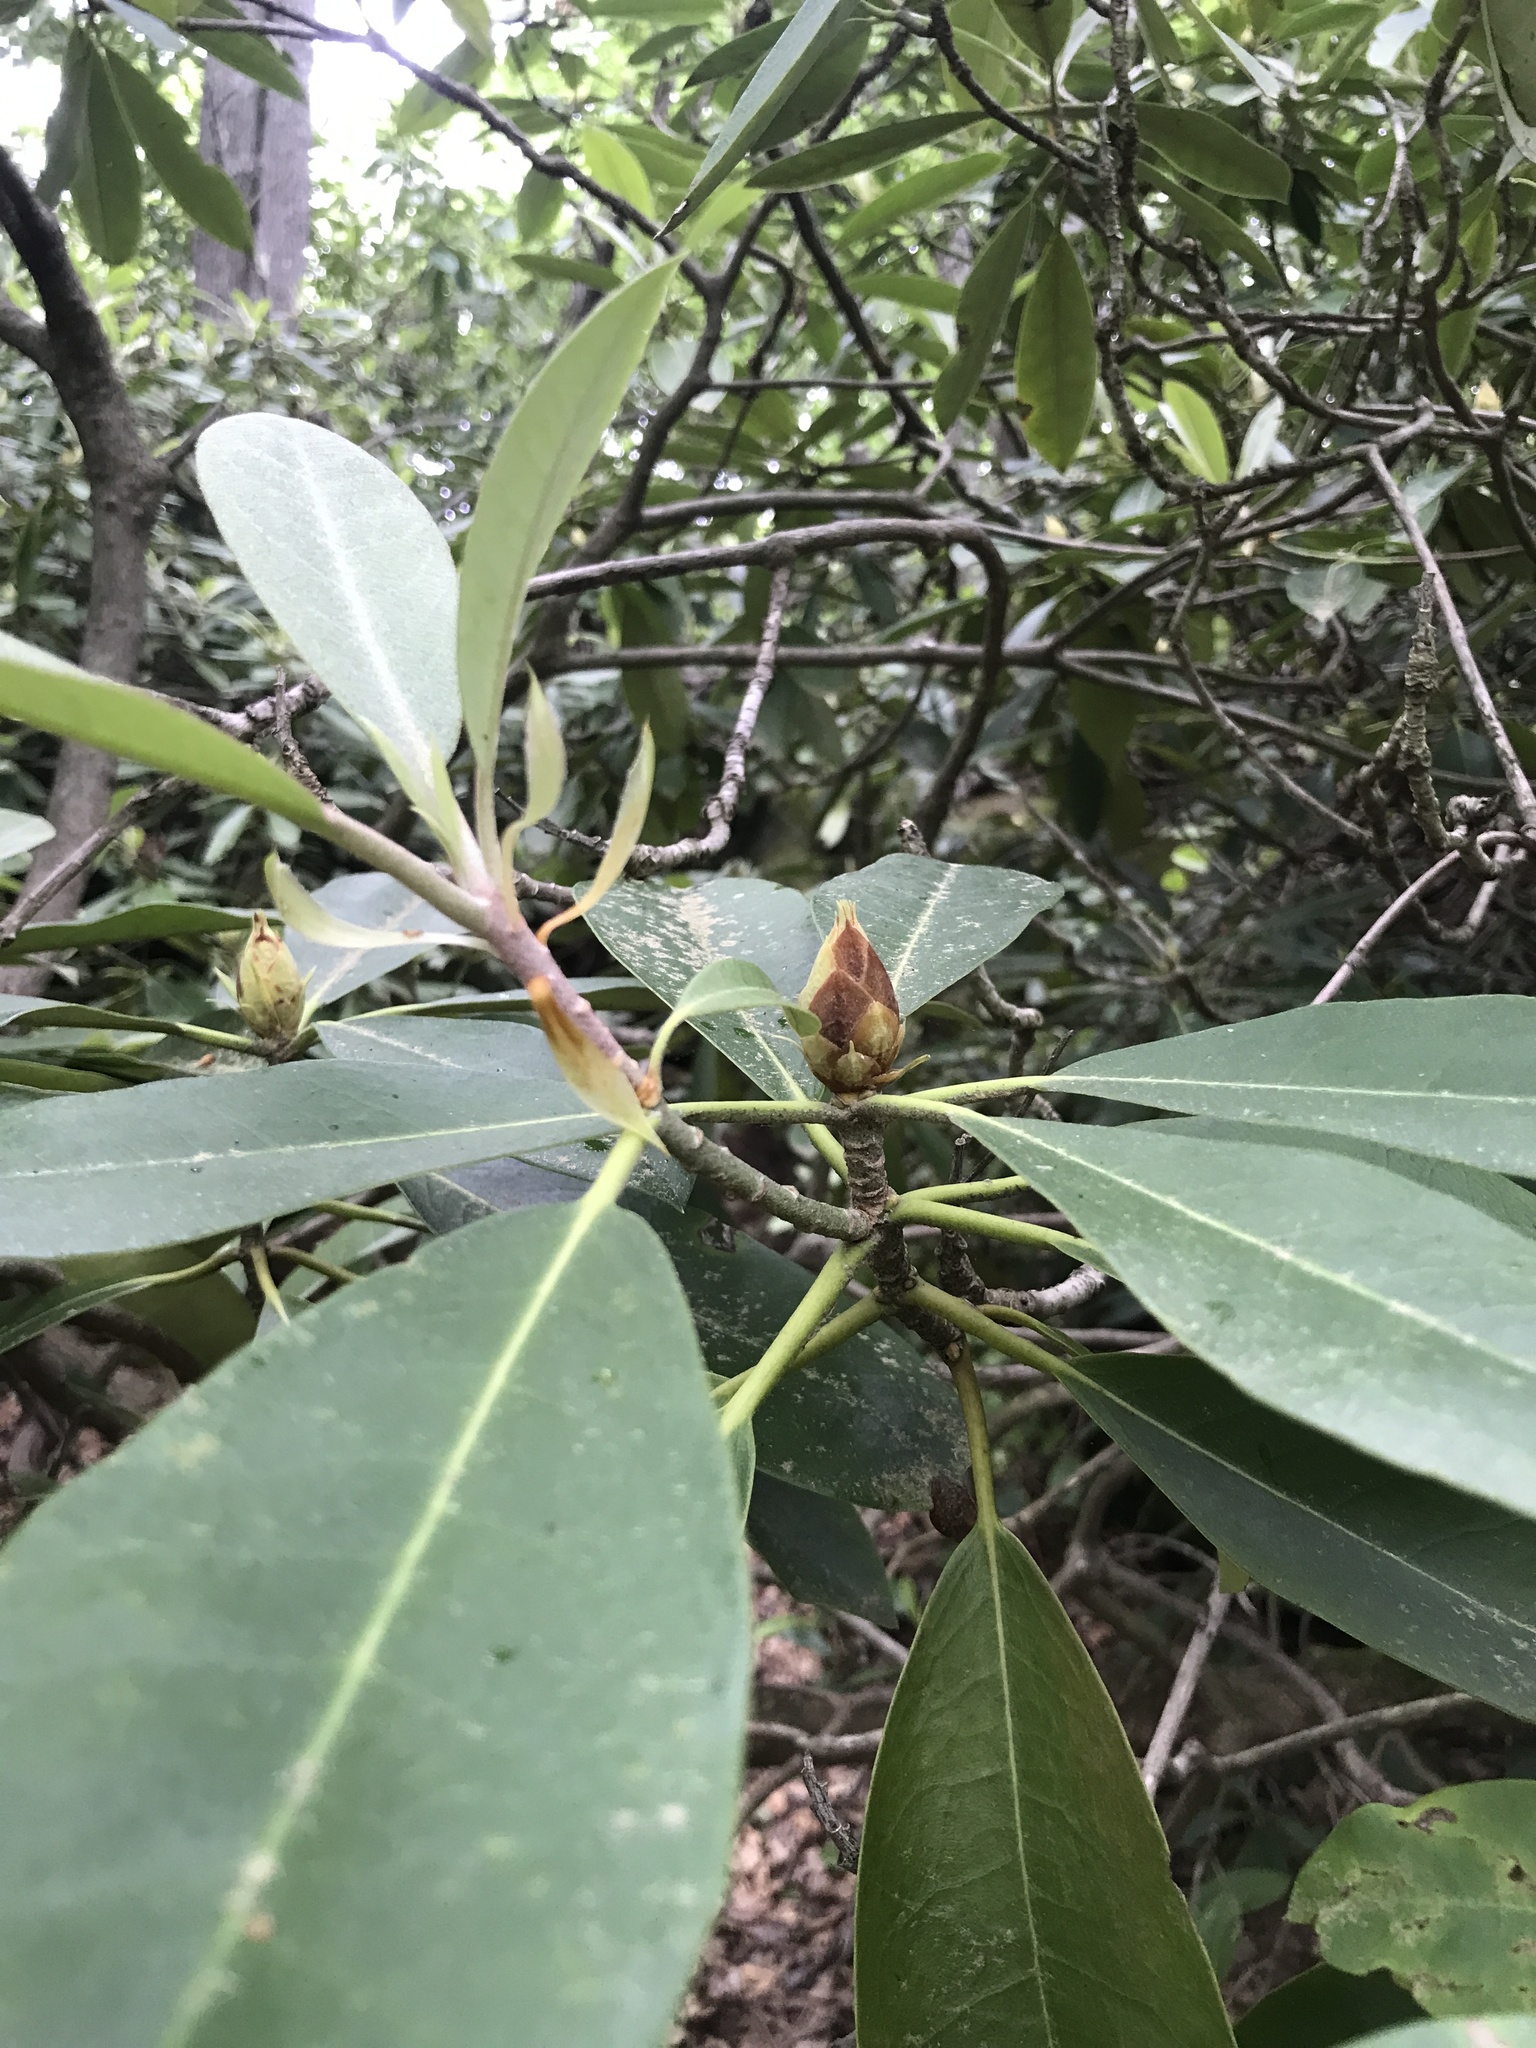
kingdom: Plantae
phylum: Tracheophyta
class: Magnoliopsida
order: Ericales
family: Ericaceae
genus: Rhododendron
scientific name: Rhododendron maximum
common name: Great rhododendron
